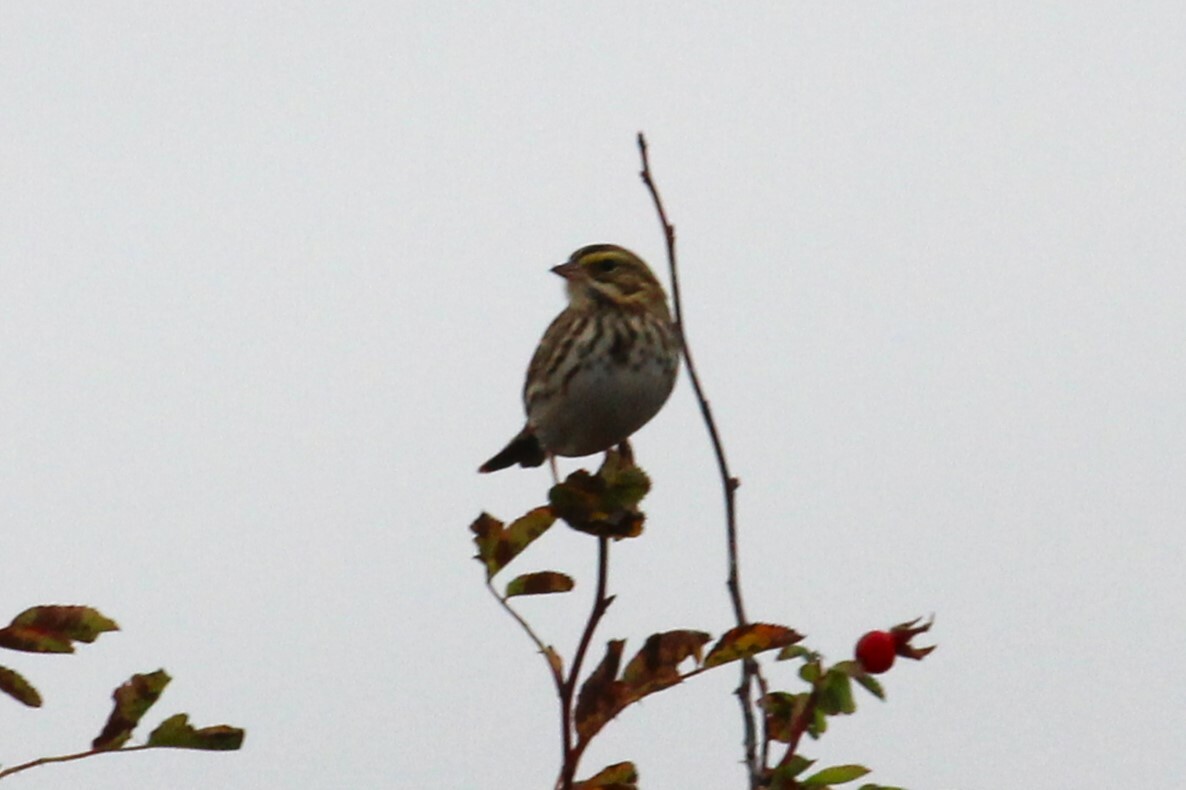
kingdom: Animalia
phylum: Chordata
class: Aves
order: Passeriformes
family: Passerellidae
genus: Passerculus
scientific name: Passerculus sandwichensis
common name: Savannah sparrow
